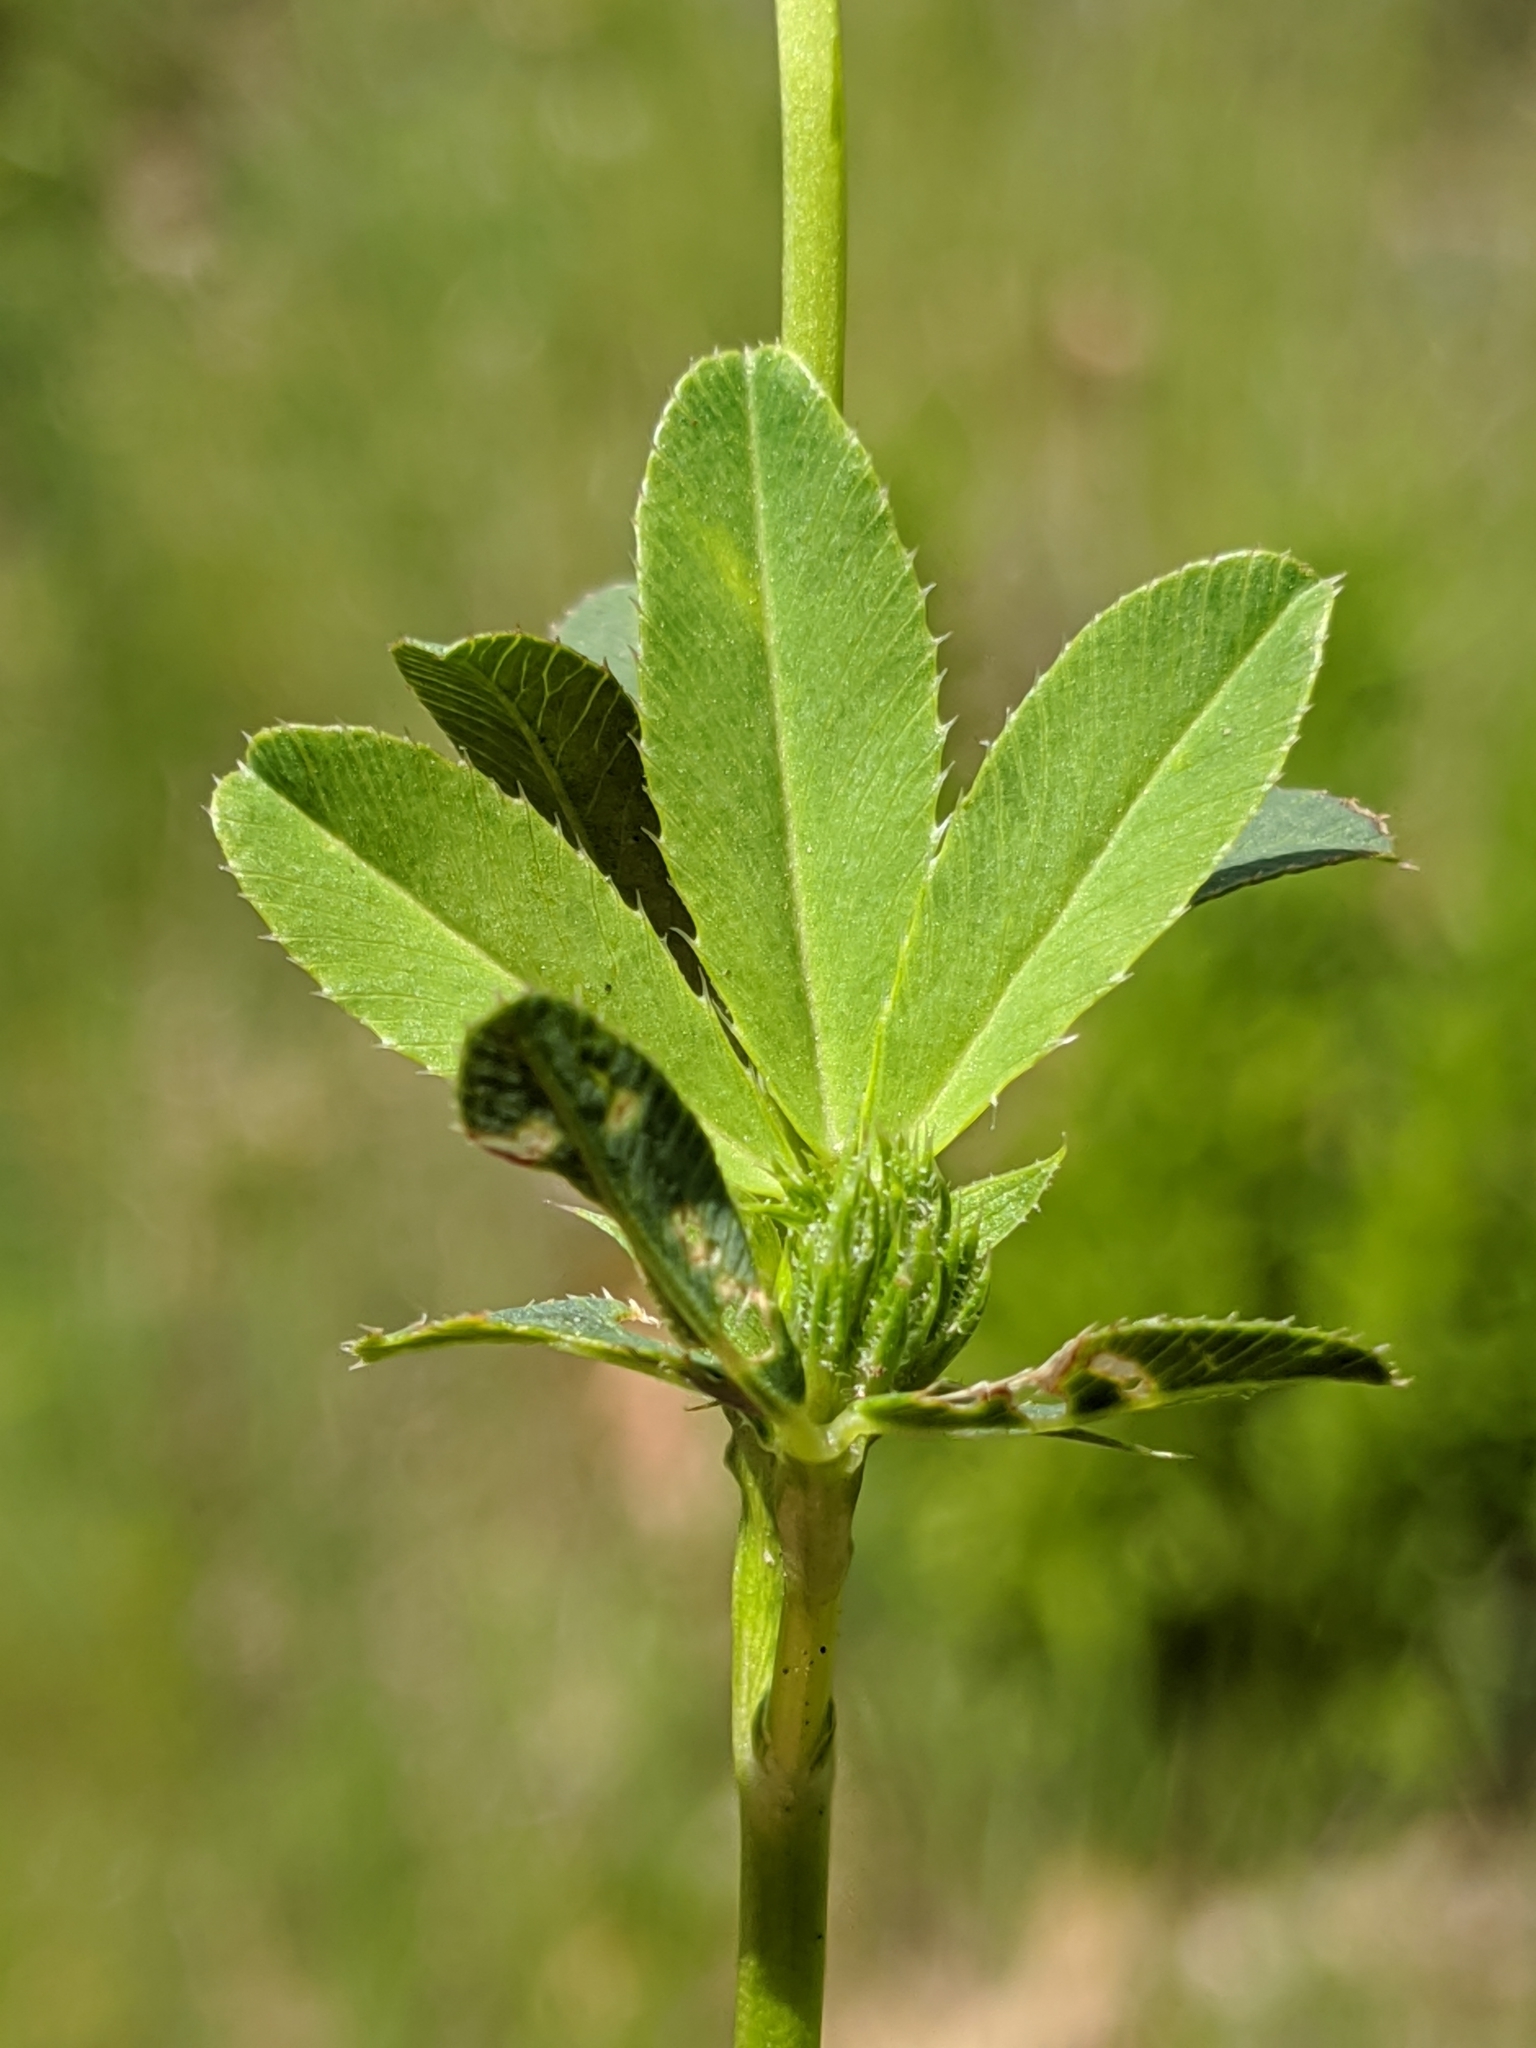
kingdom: Plantae
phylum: Tracheophyta
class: Magnoliopsida
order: Fabales
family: Fabaceae
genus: Trifolium
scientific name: Trifolium ciliolatum
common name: Foothill clover
